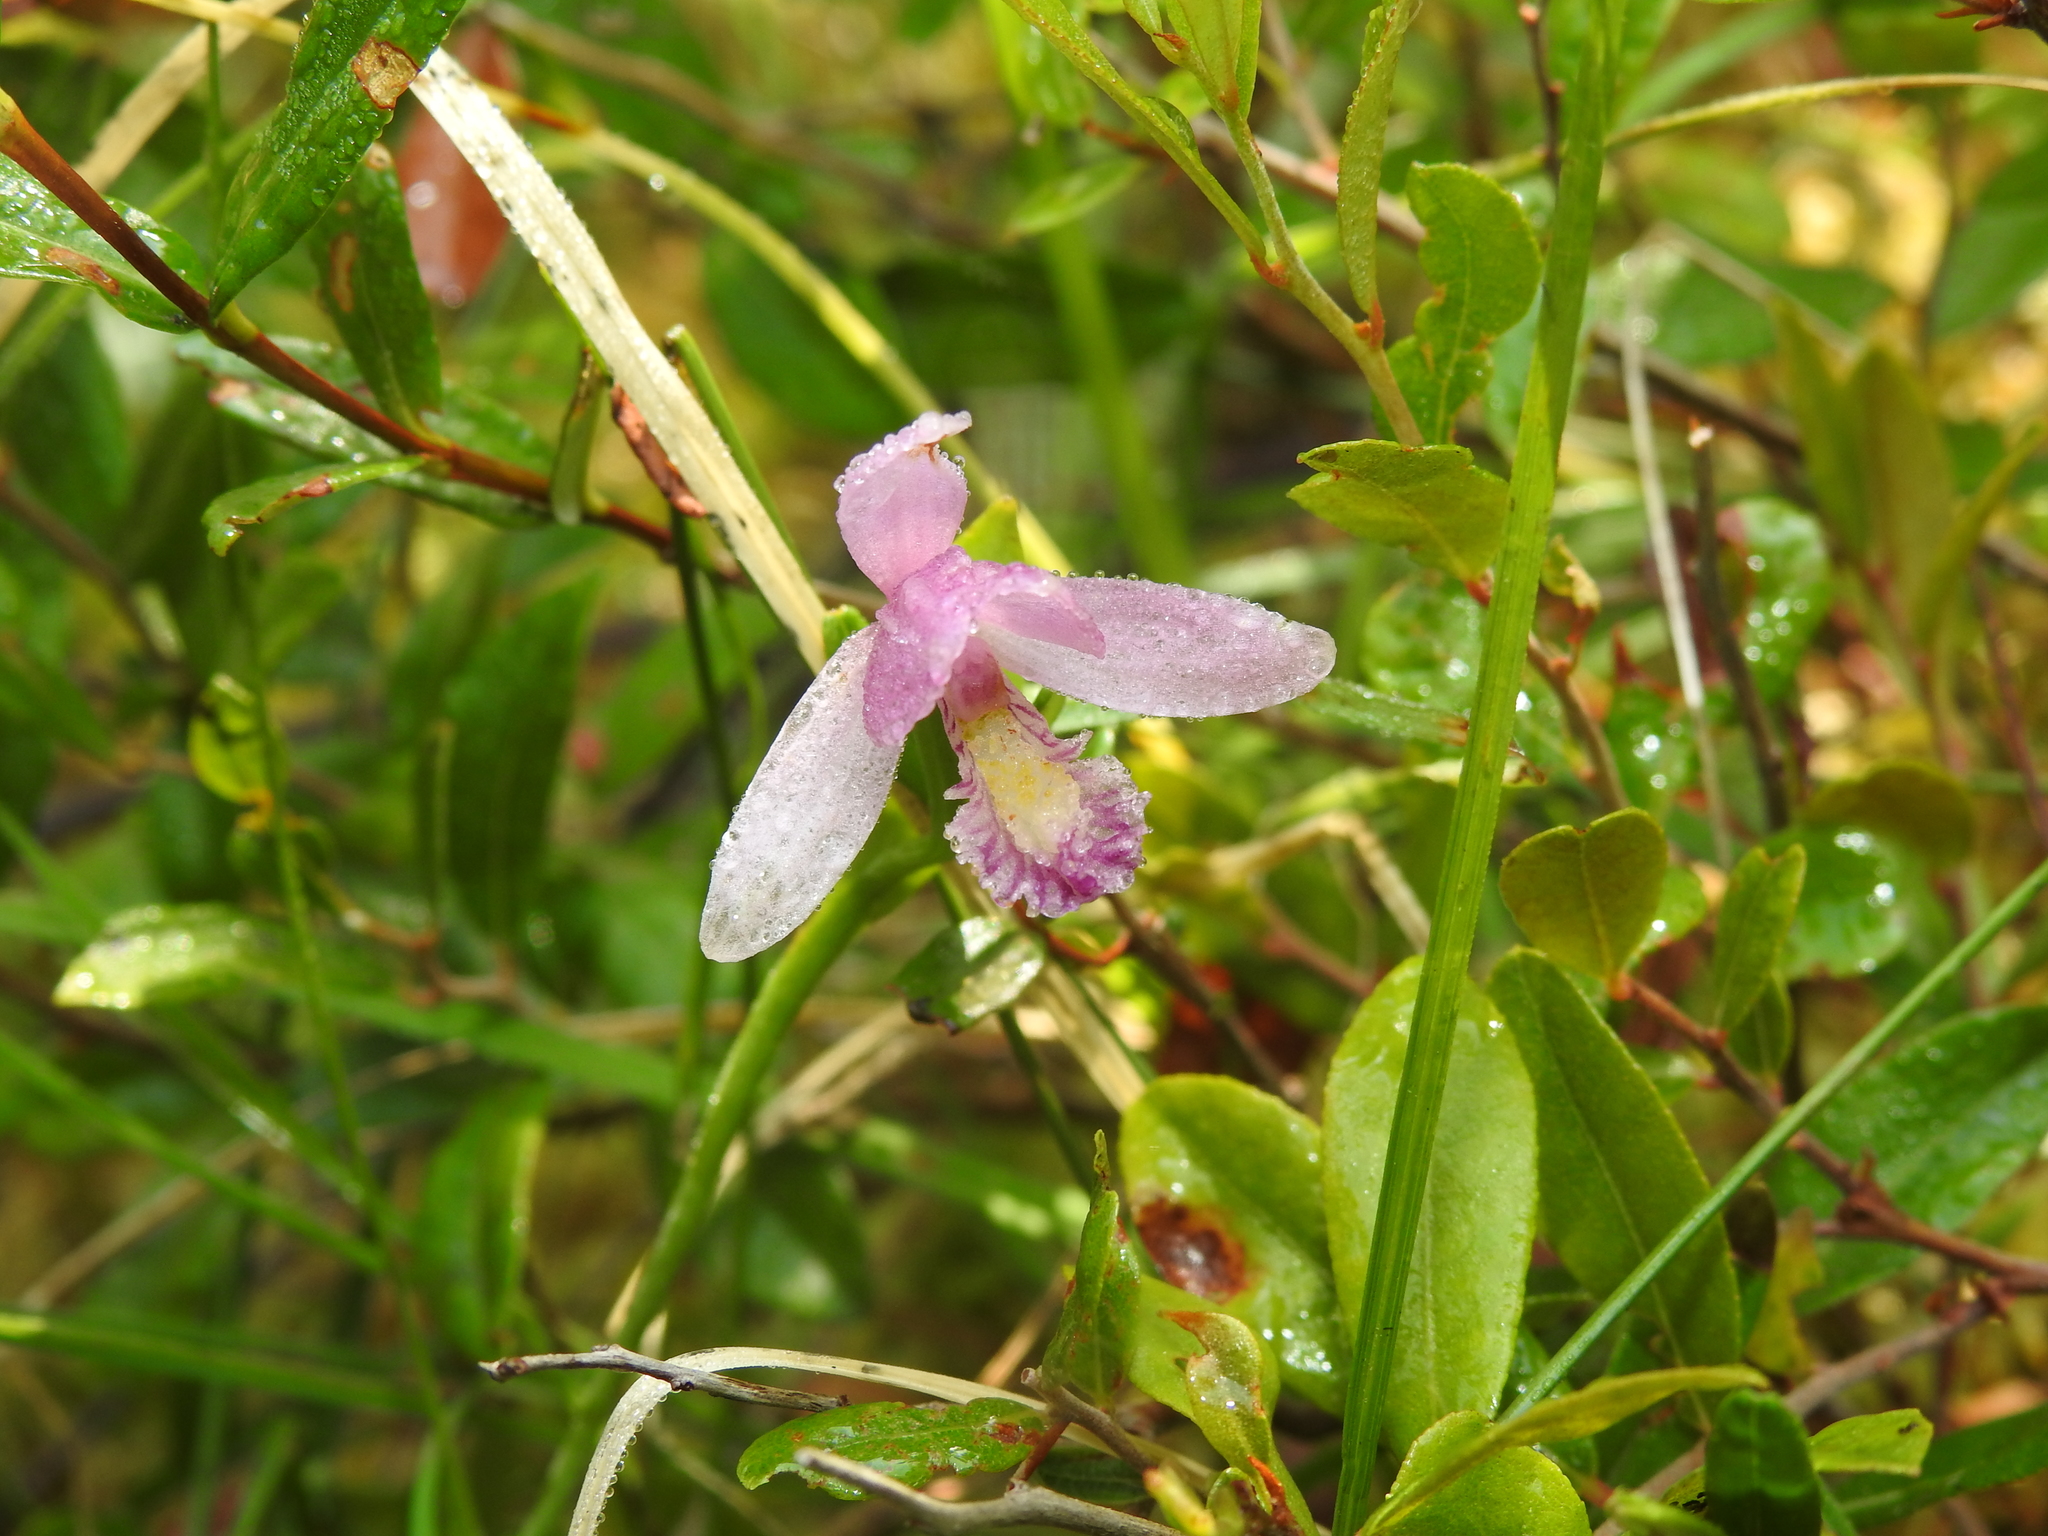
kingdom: Plantae
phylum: Tracheophyta
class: Liliopsida
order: Asparagales
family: Orchidaceae
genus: Pogonia
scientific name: Pogonia ophioglossoides
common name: Rose pogonia
